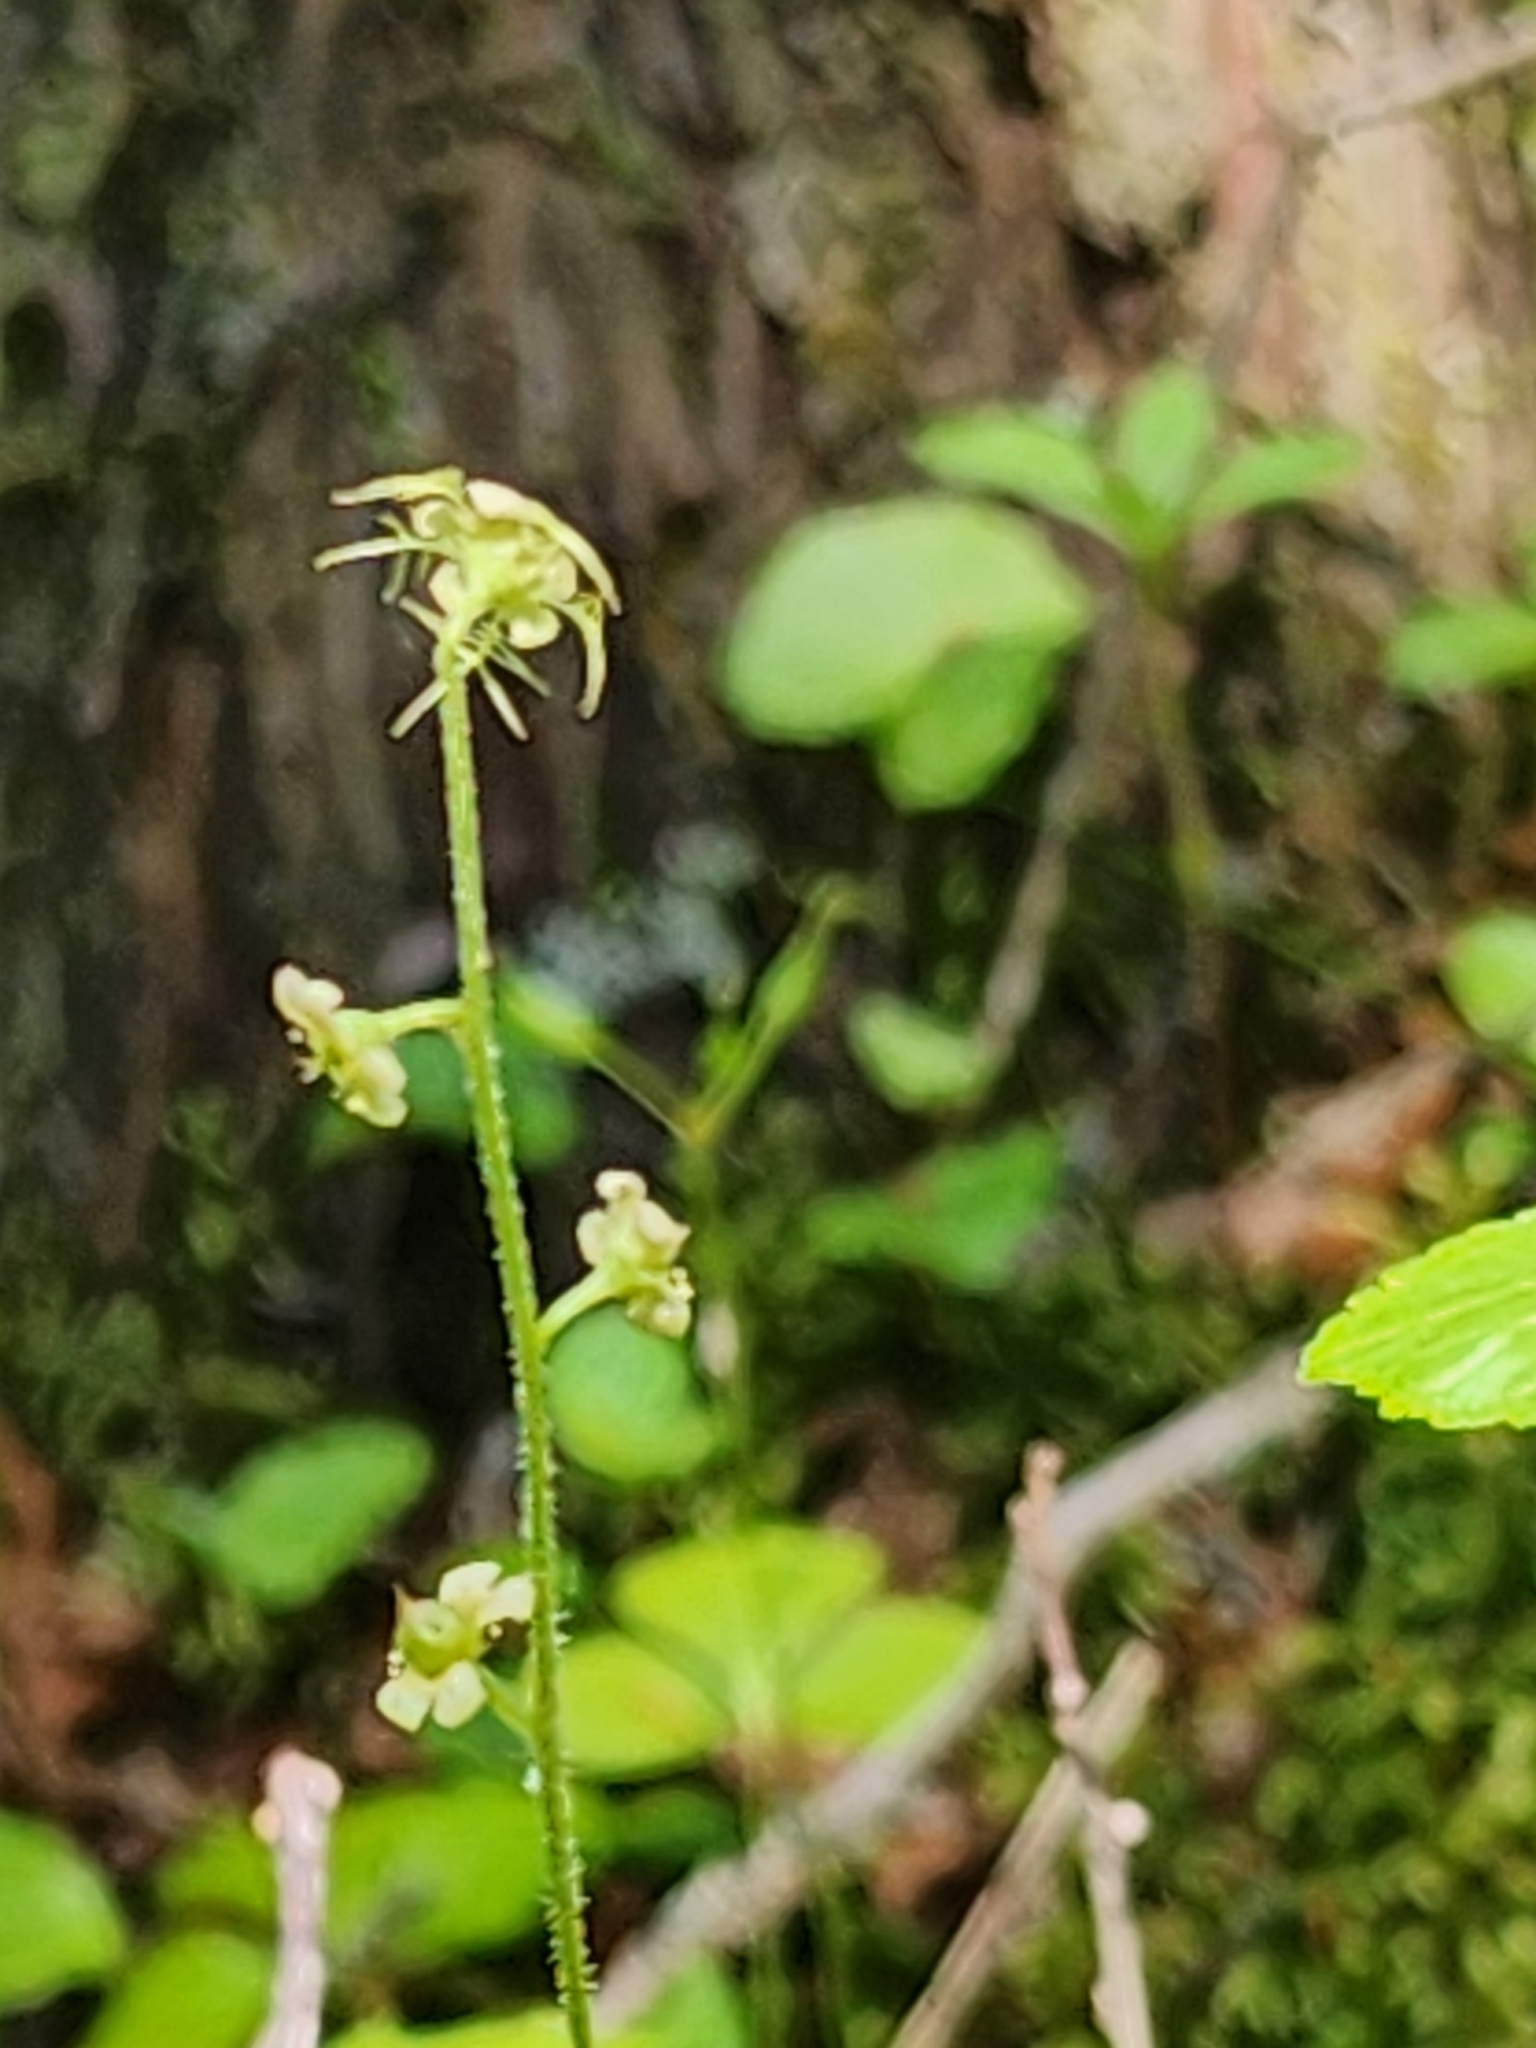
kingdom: Plantae
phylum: Tracheophyta
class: Magnoliopsida
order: Saxifragales
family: Saxifragaceae
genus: Mitella
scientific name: Mitella nuda
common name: Bare-stemmed bishop's-cap
